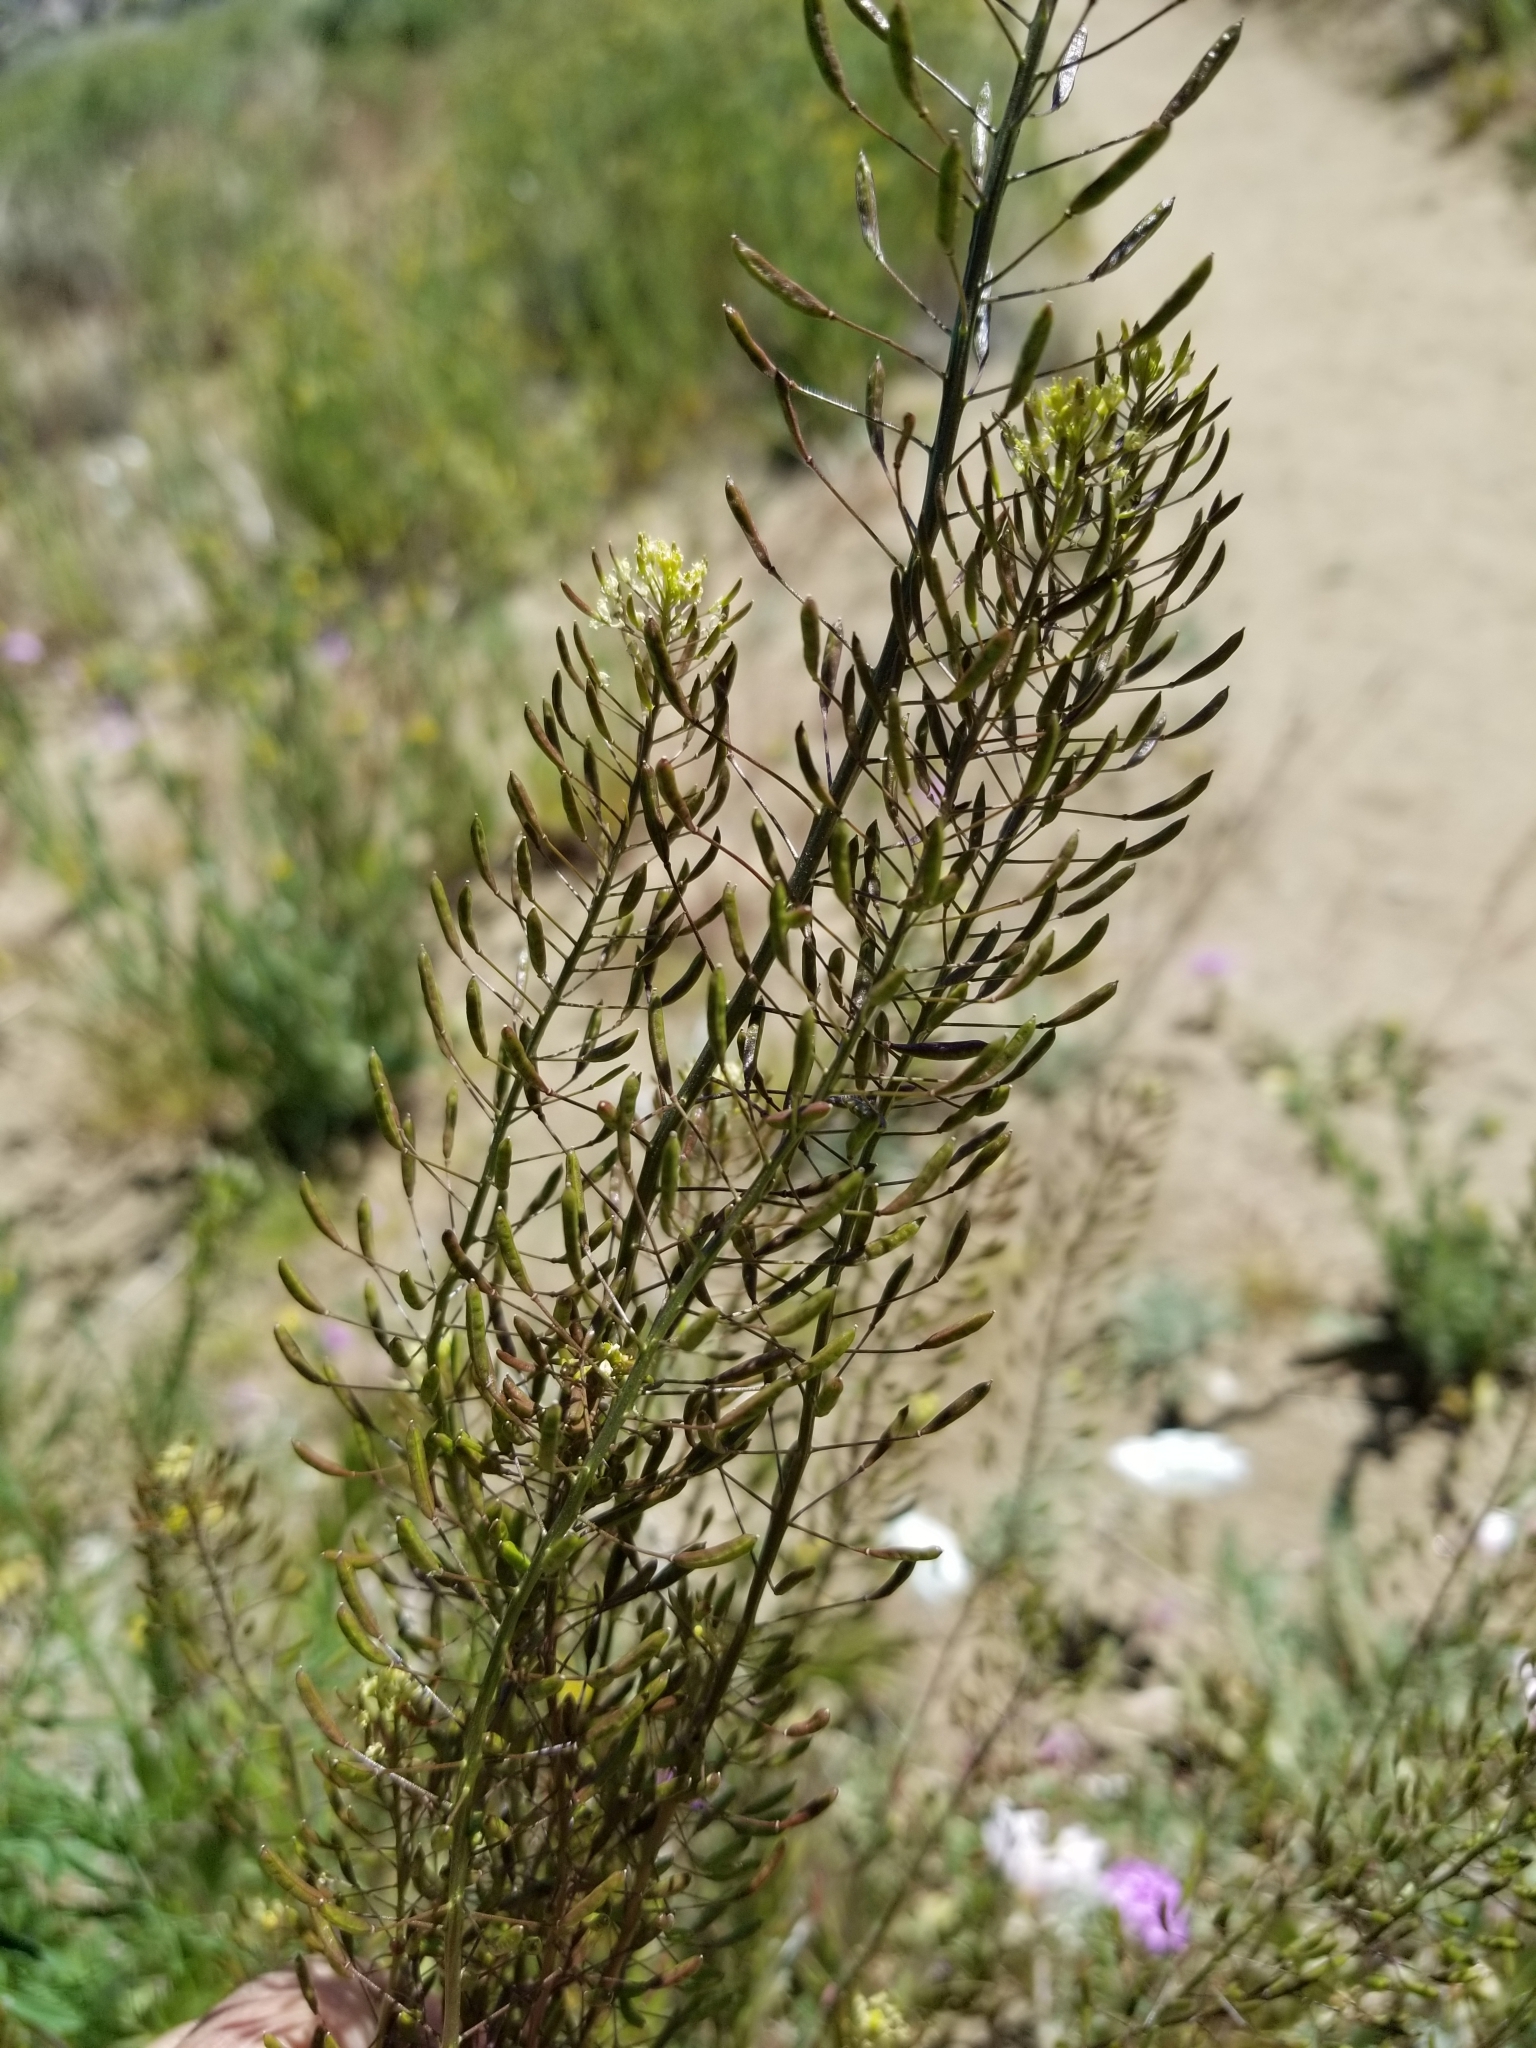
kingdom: Plantae
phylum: Tracheophyta
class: Magnoliopsida
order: Brassicales
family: Brassicaceae
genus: Descurainia
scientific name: Descurainia pinnata
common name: Western tansy mustard
